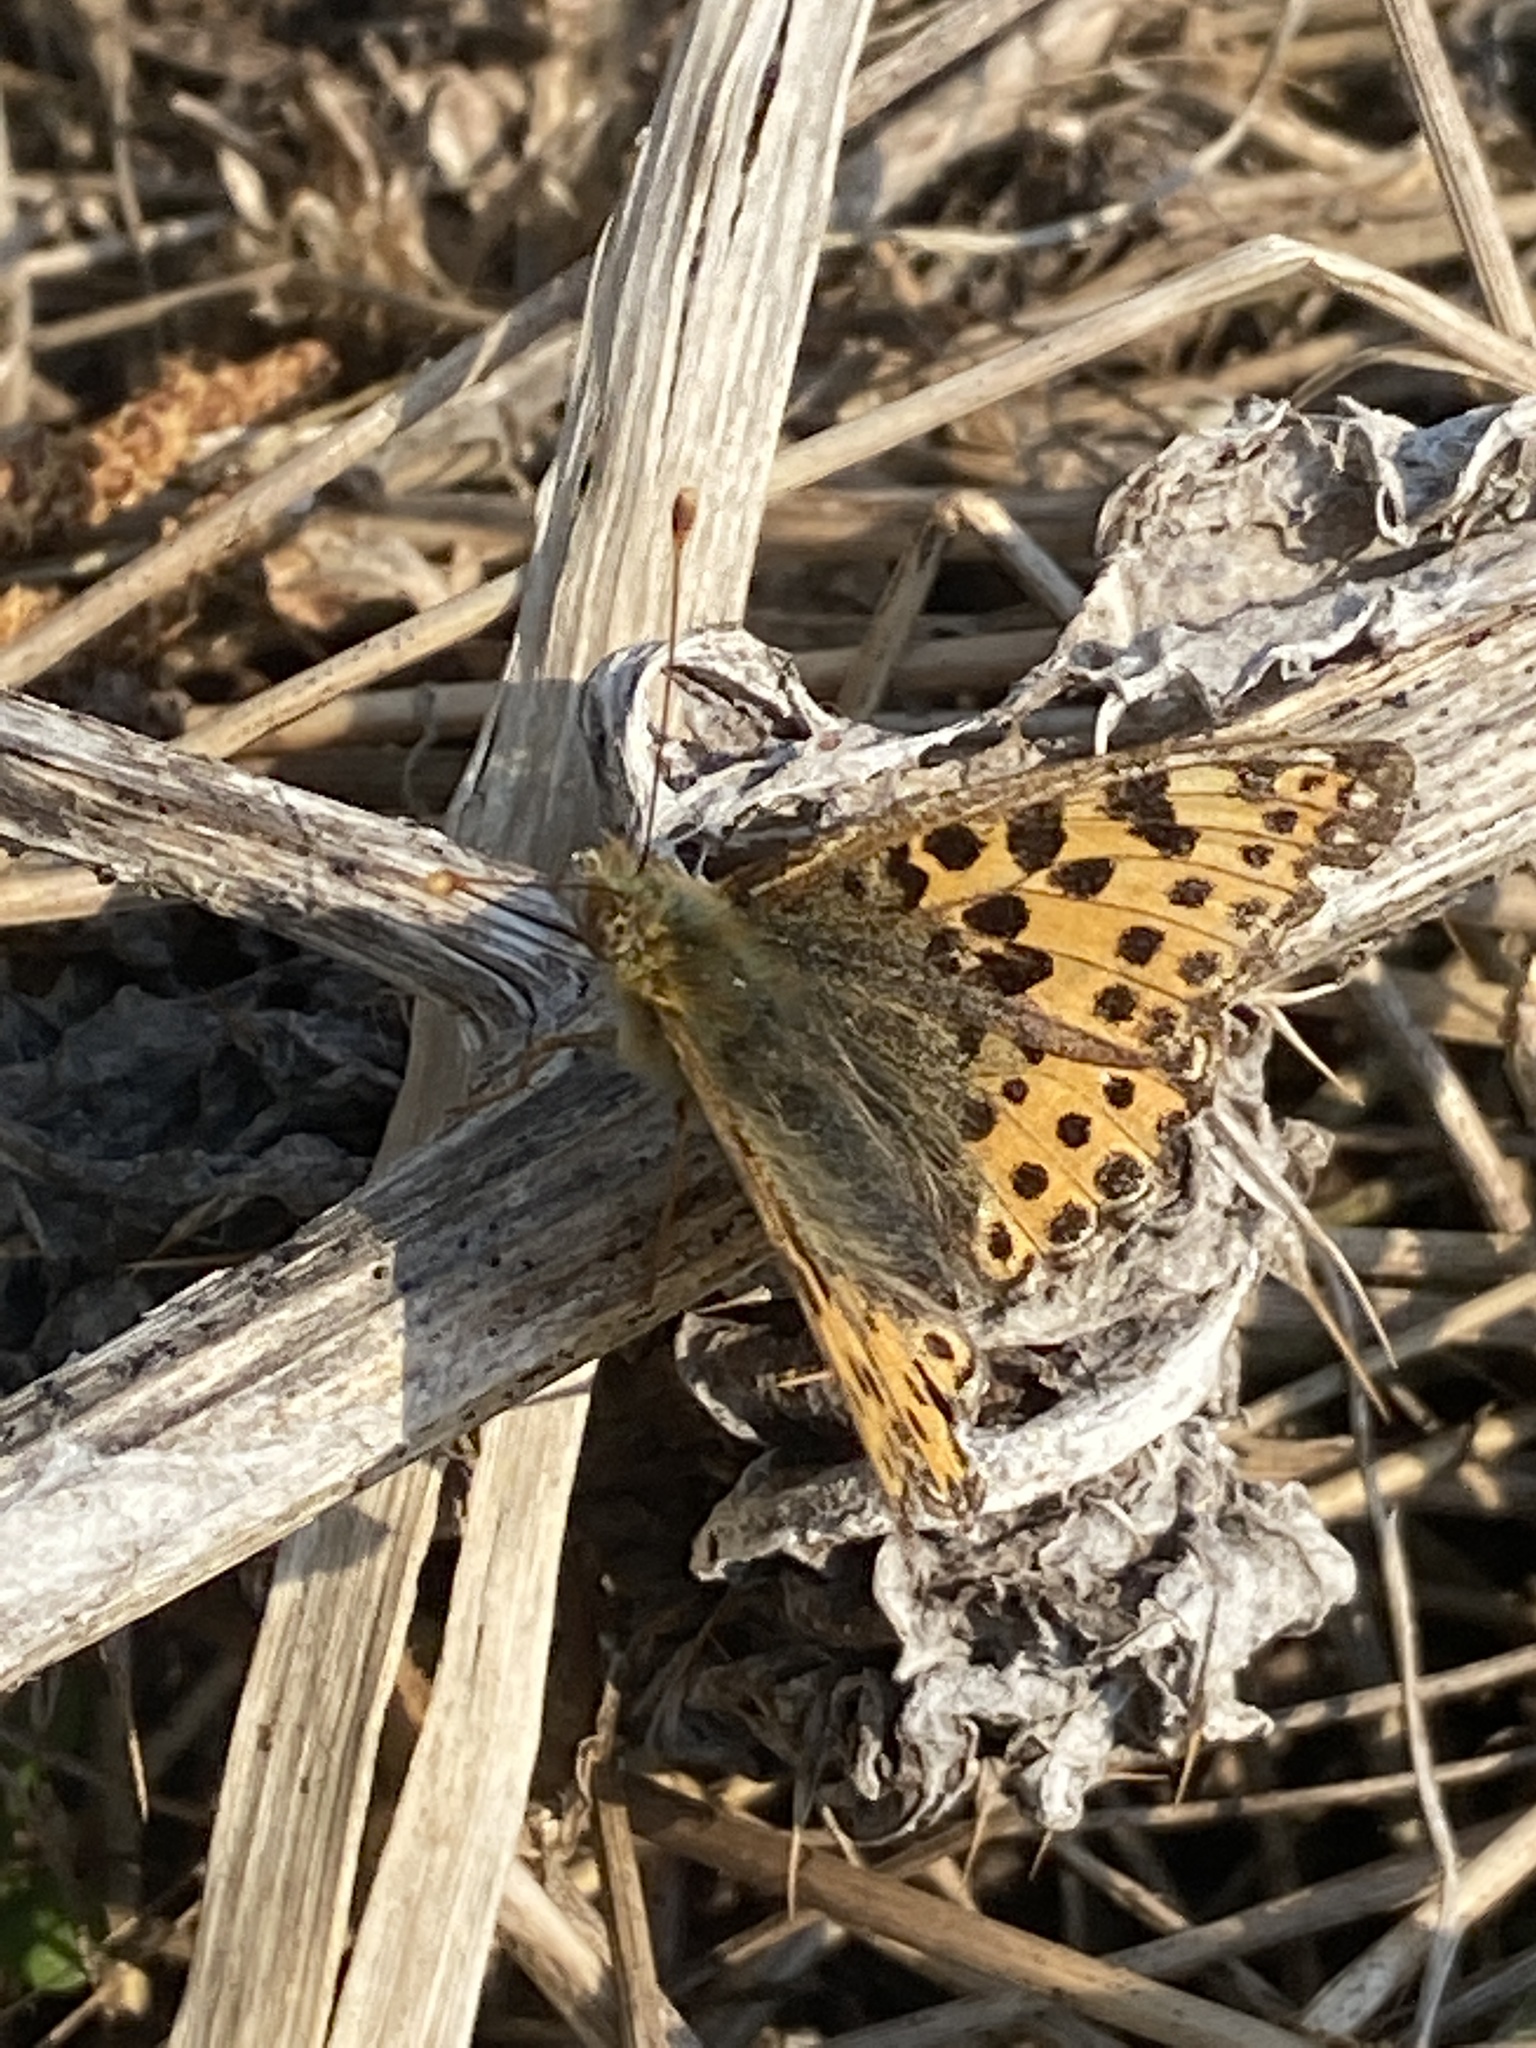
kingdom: Animalia
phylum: Arthropoda
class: Insecta
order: Lepidoptera
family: Nymphalidae
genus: Issoria
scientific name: Issoria lathonia
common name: Queen of spain fritillary
